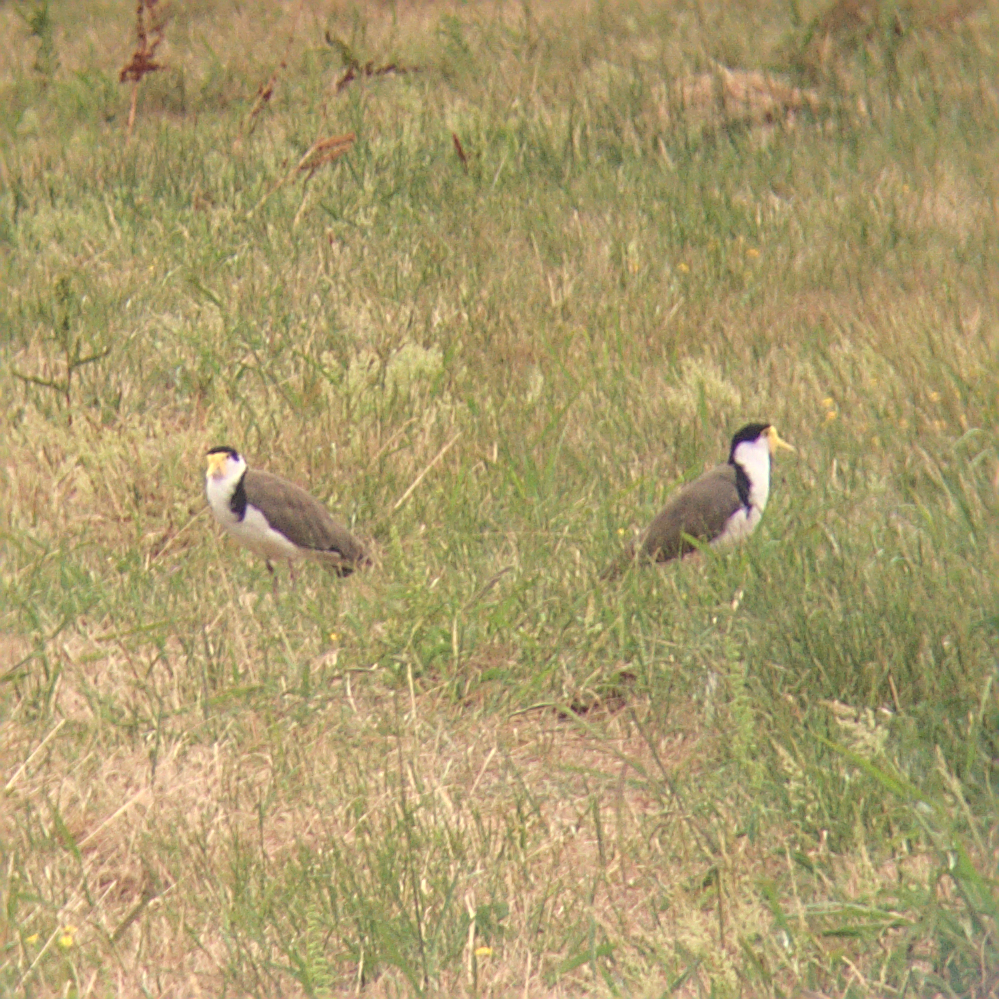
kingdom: Animalia
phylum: Chordata
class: Aves
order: Charadriiformes
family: Charadriidae
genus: Vanellus
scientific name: Vanellus miles
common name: Masked lapwing
